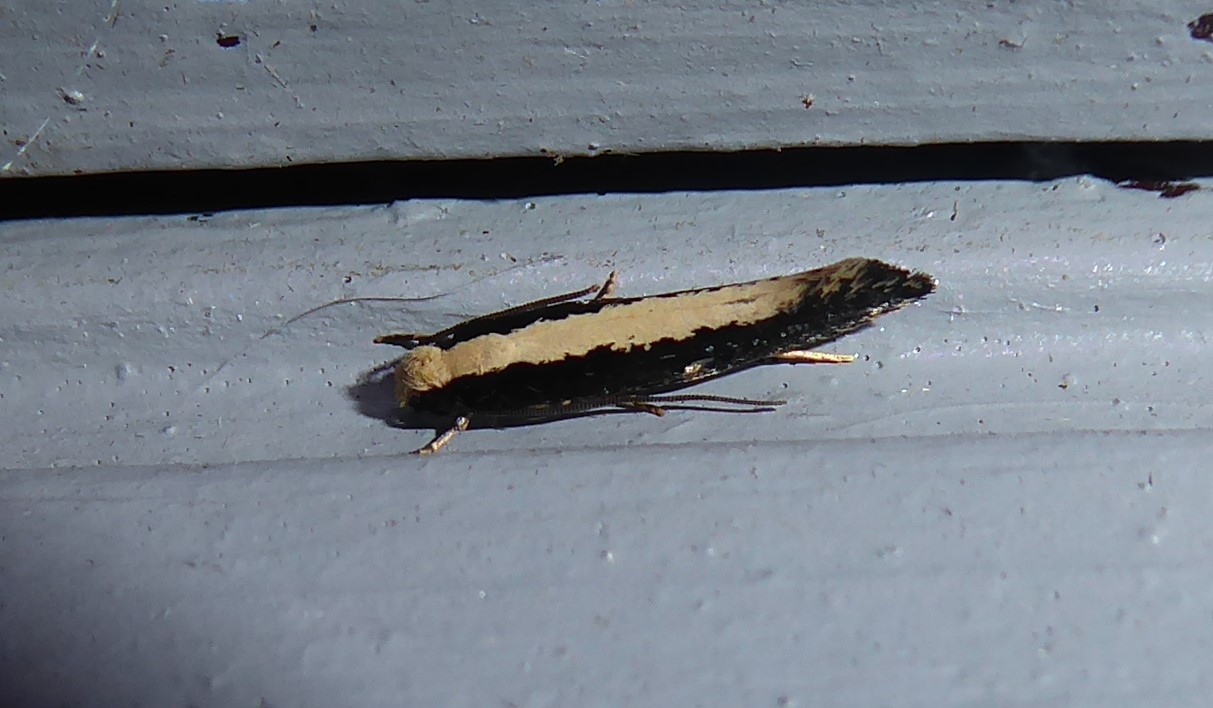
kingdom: Animalia
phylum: Arthropoda
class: Insecta
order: Lepidoptera
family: Tineidae
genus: Monopis
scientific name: Monopis ethelella
